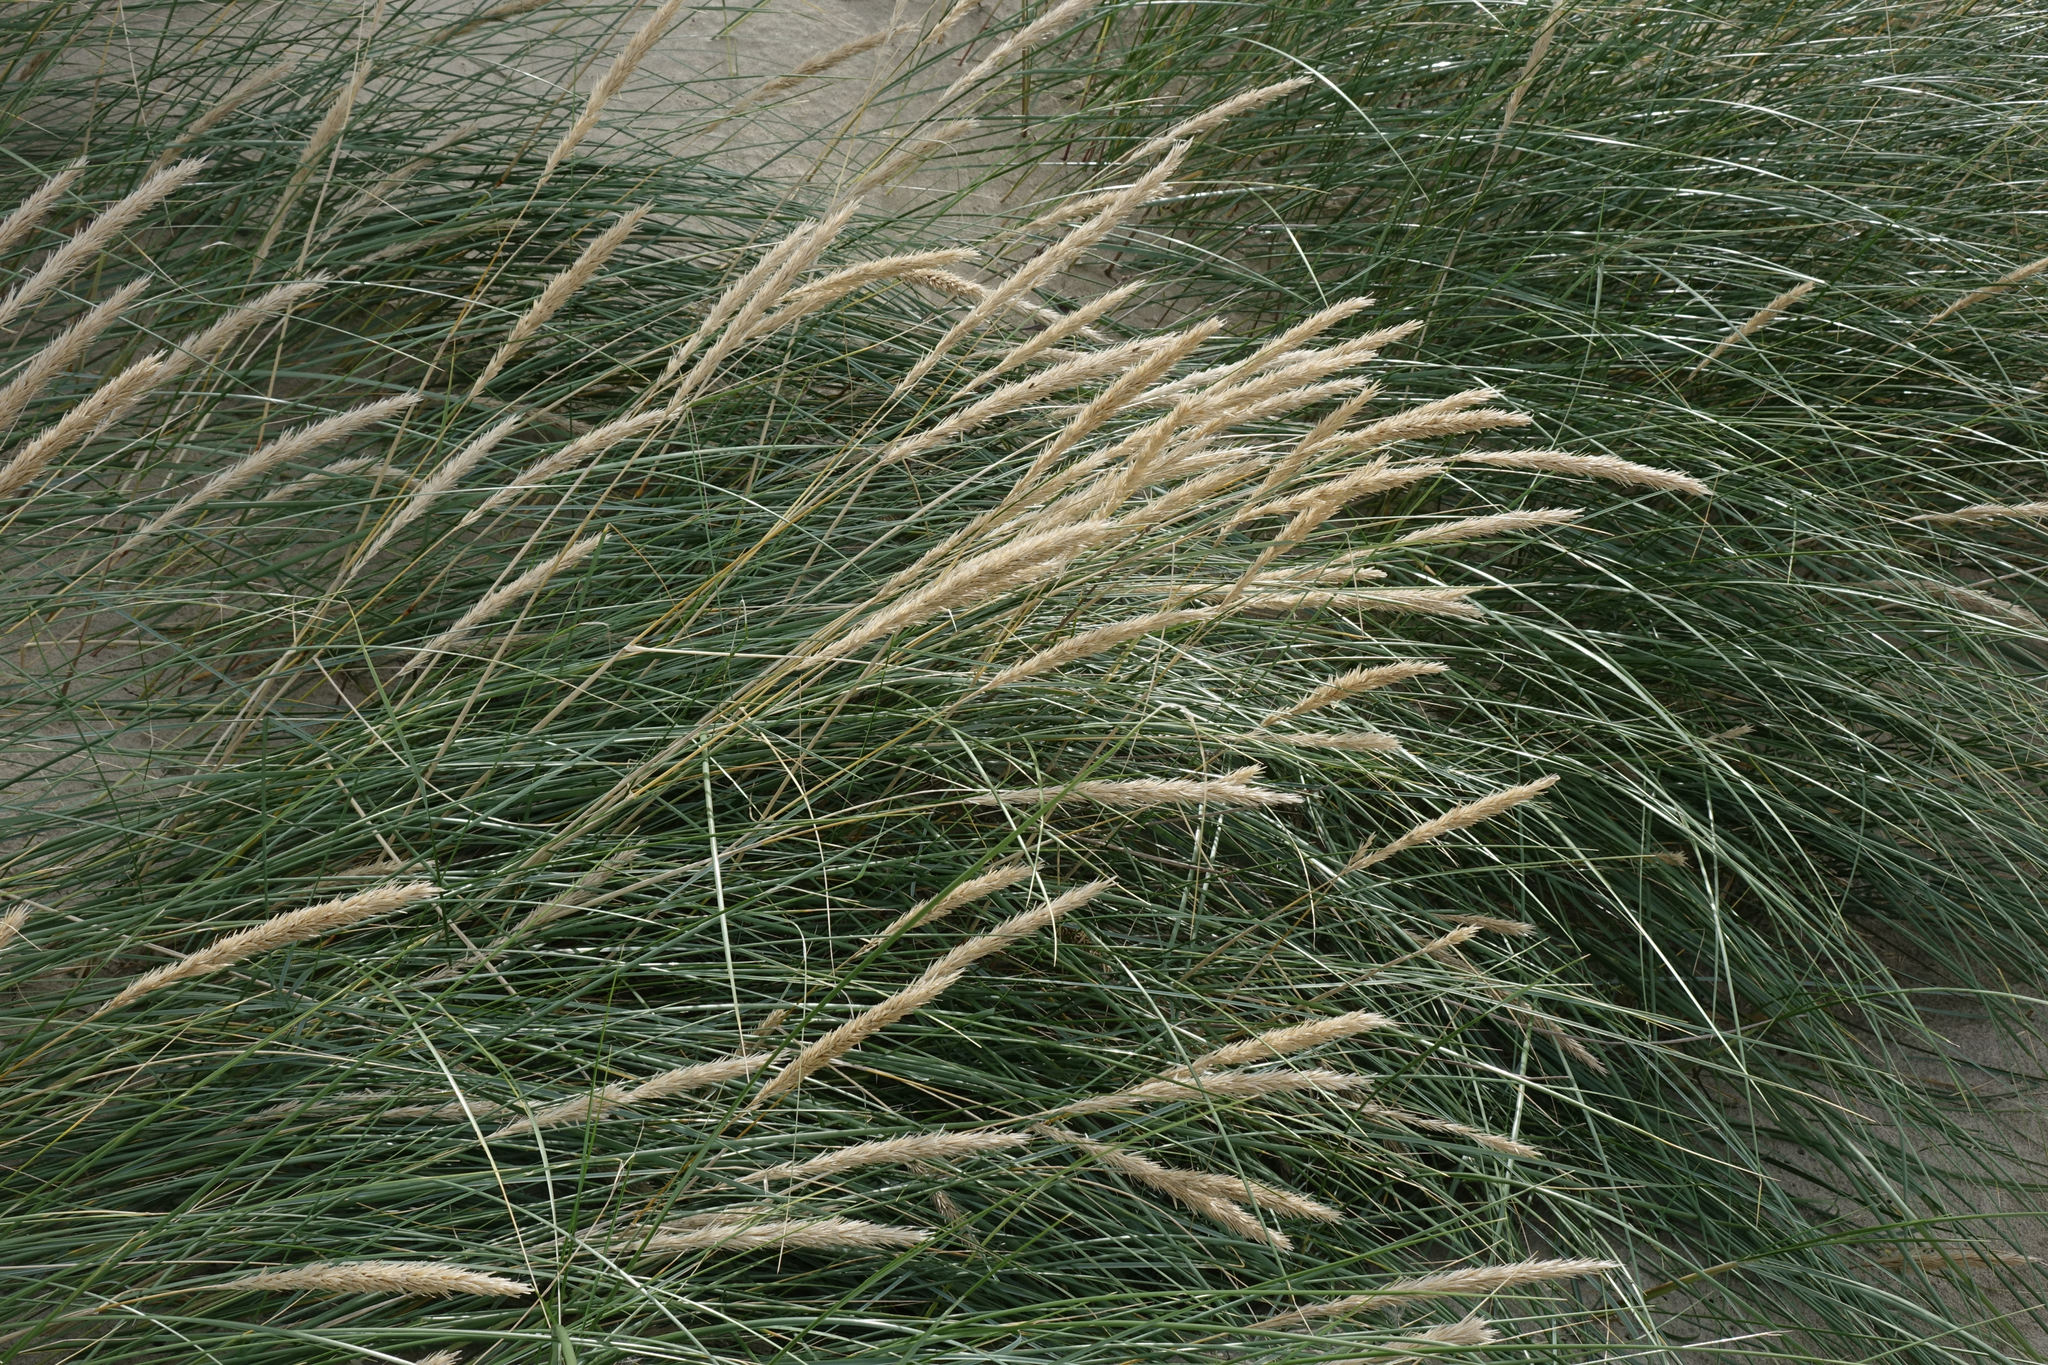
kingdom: Plantae
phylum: Tracheophyta
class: Liliopsida
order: Poales
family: Poaceae
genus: Calamagrostis
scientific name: Calamagrostis arenaria
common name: European beachgrass
